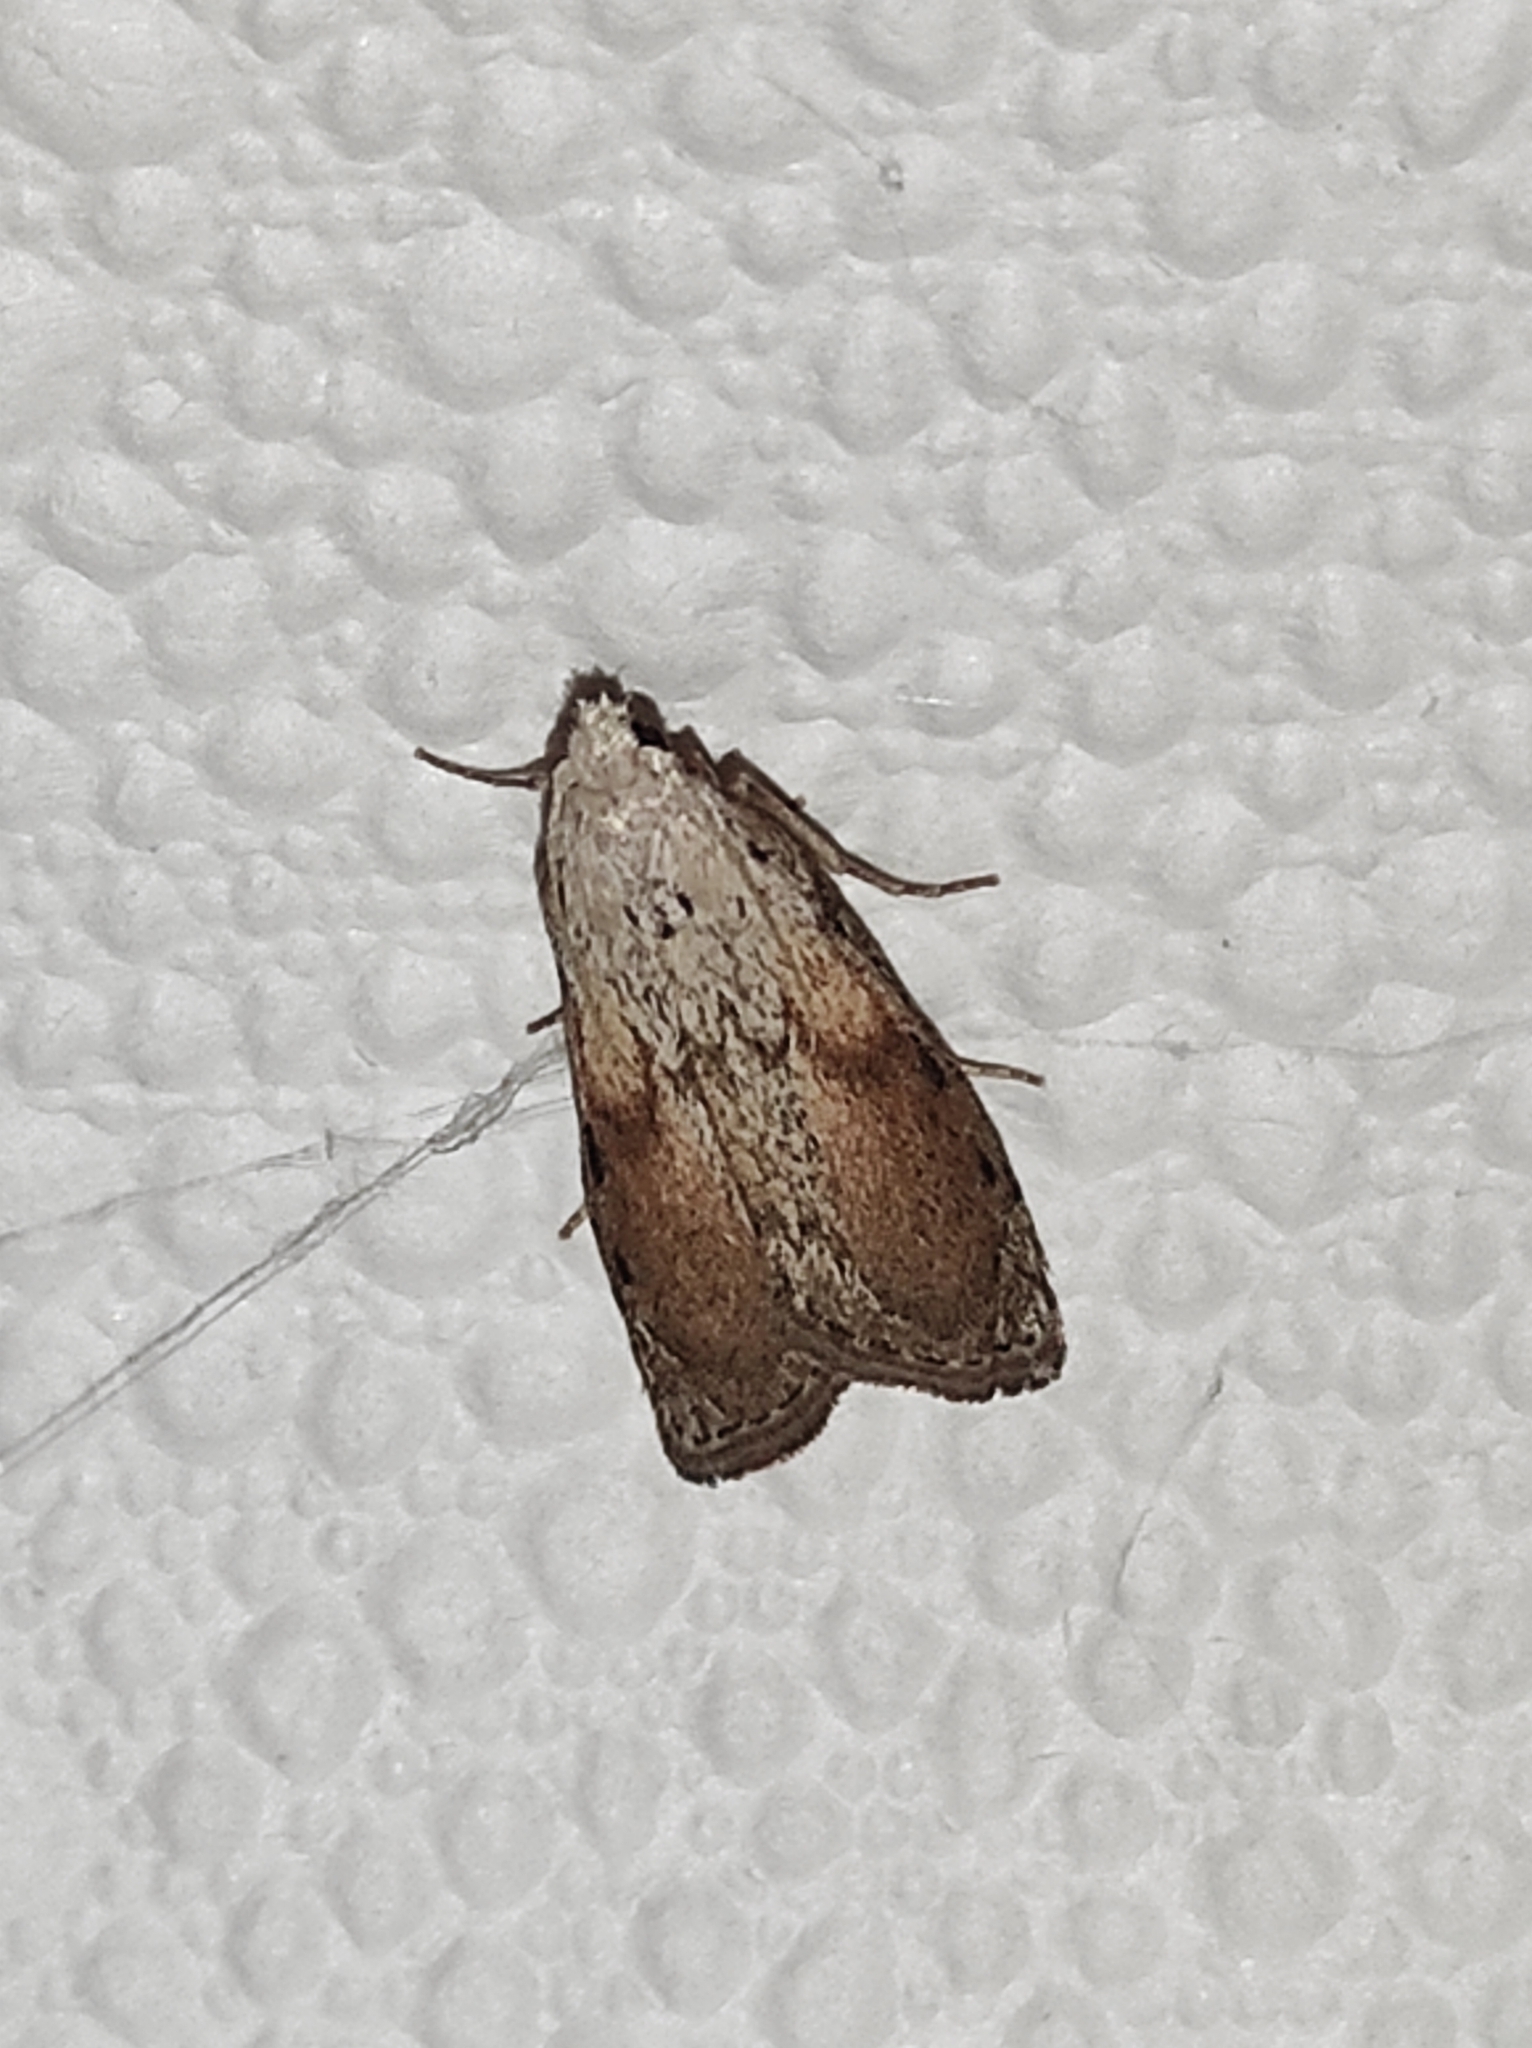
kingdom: Animalia
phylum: Arthropoda
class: Insecta
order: Lepidoptera
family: Pyralidae
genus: Aphomia
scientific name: Aphomia sociella
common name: Bee moth
